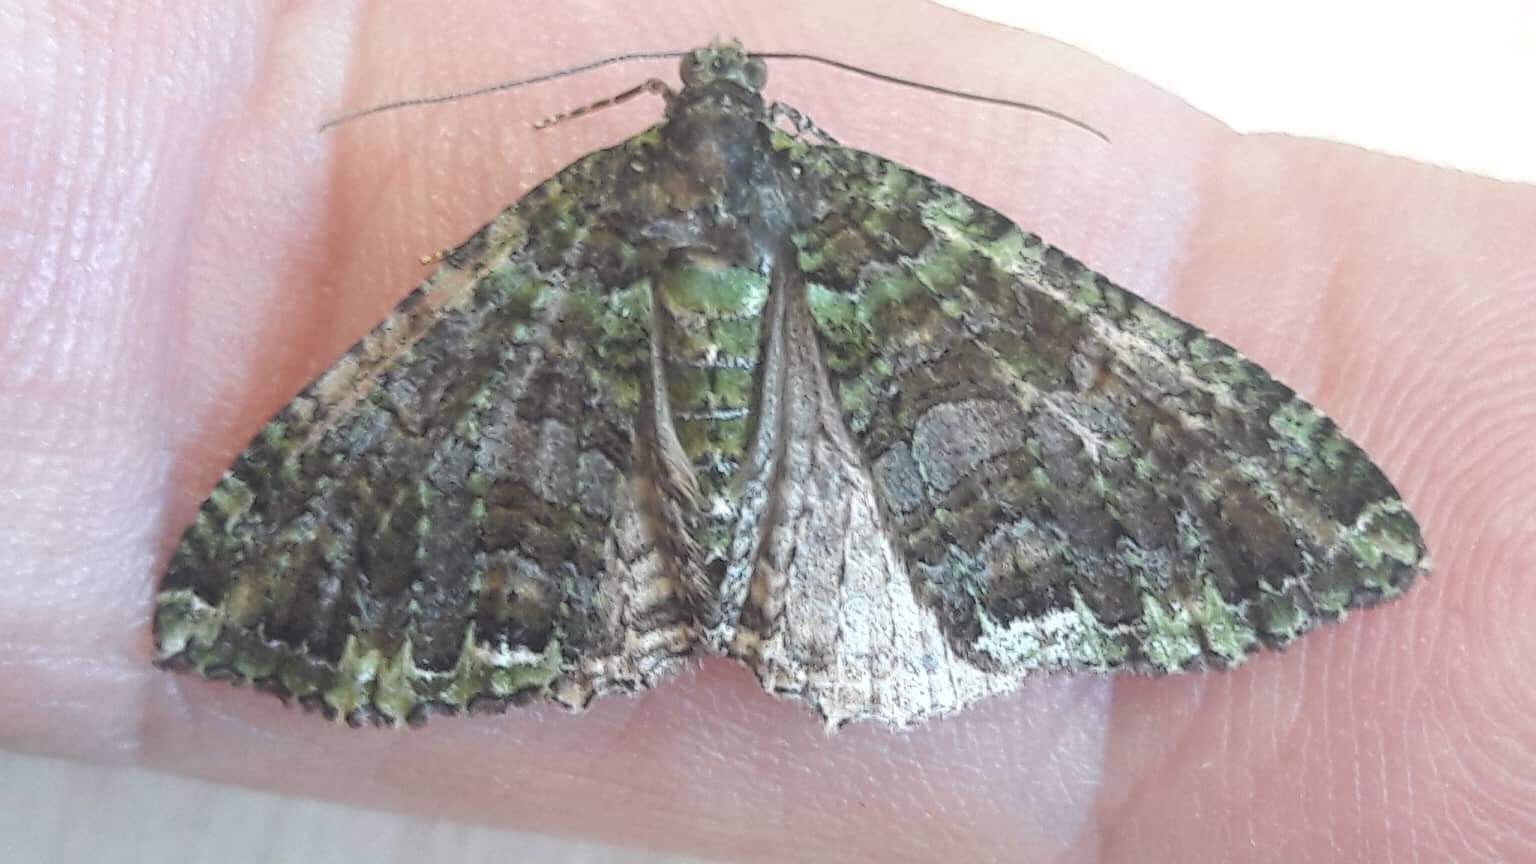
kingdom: Animalia
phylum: Arthropoda
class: Insecta
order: Lepidoptera
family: Geometridae
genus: Austrocidaria
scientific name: Austrocidaria similata
